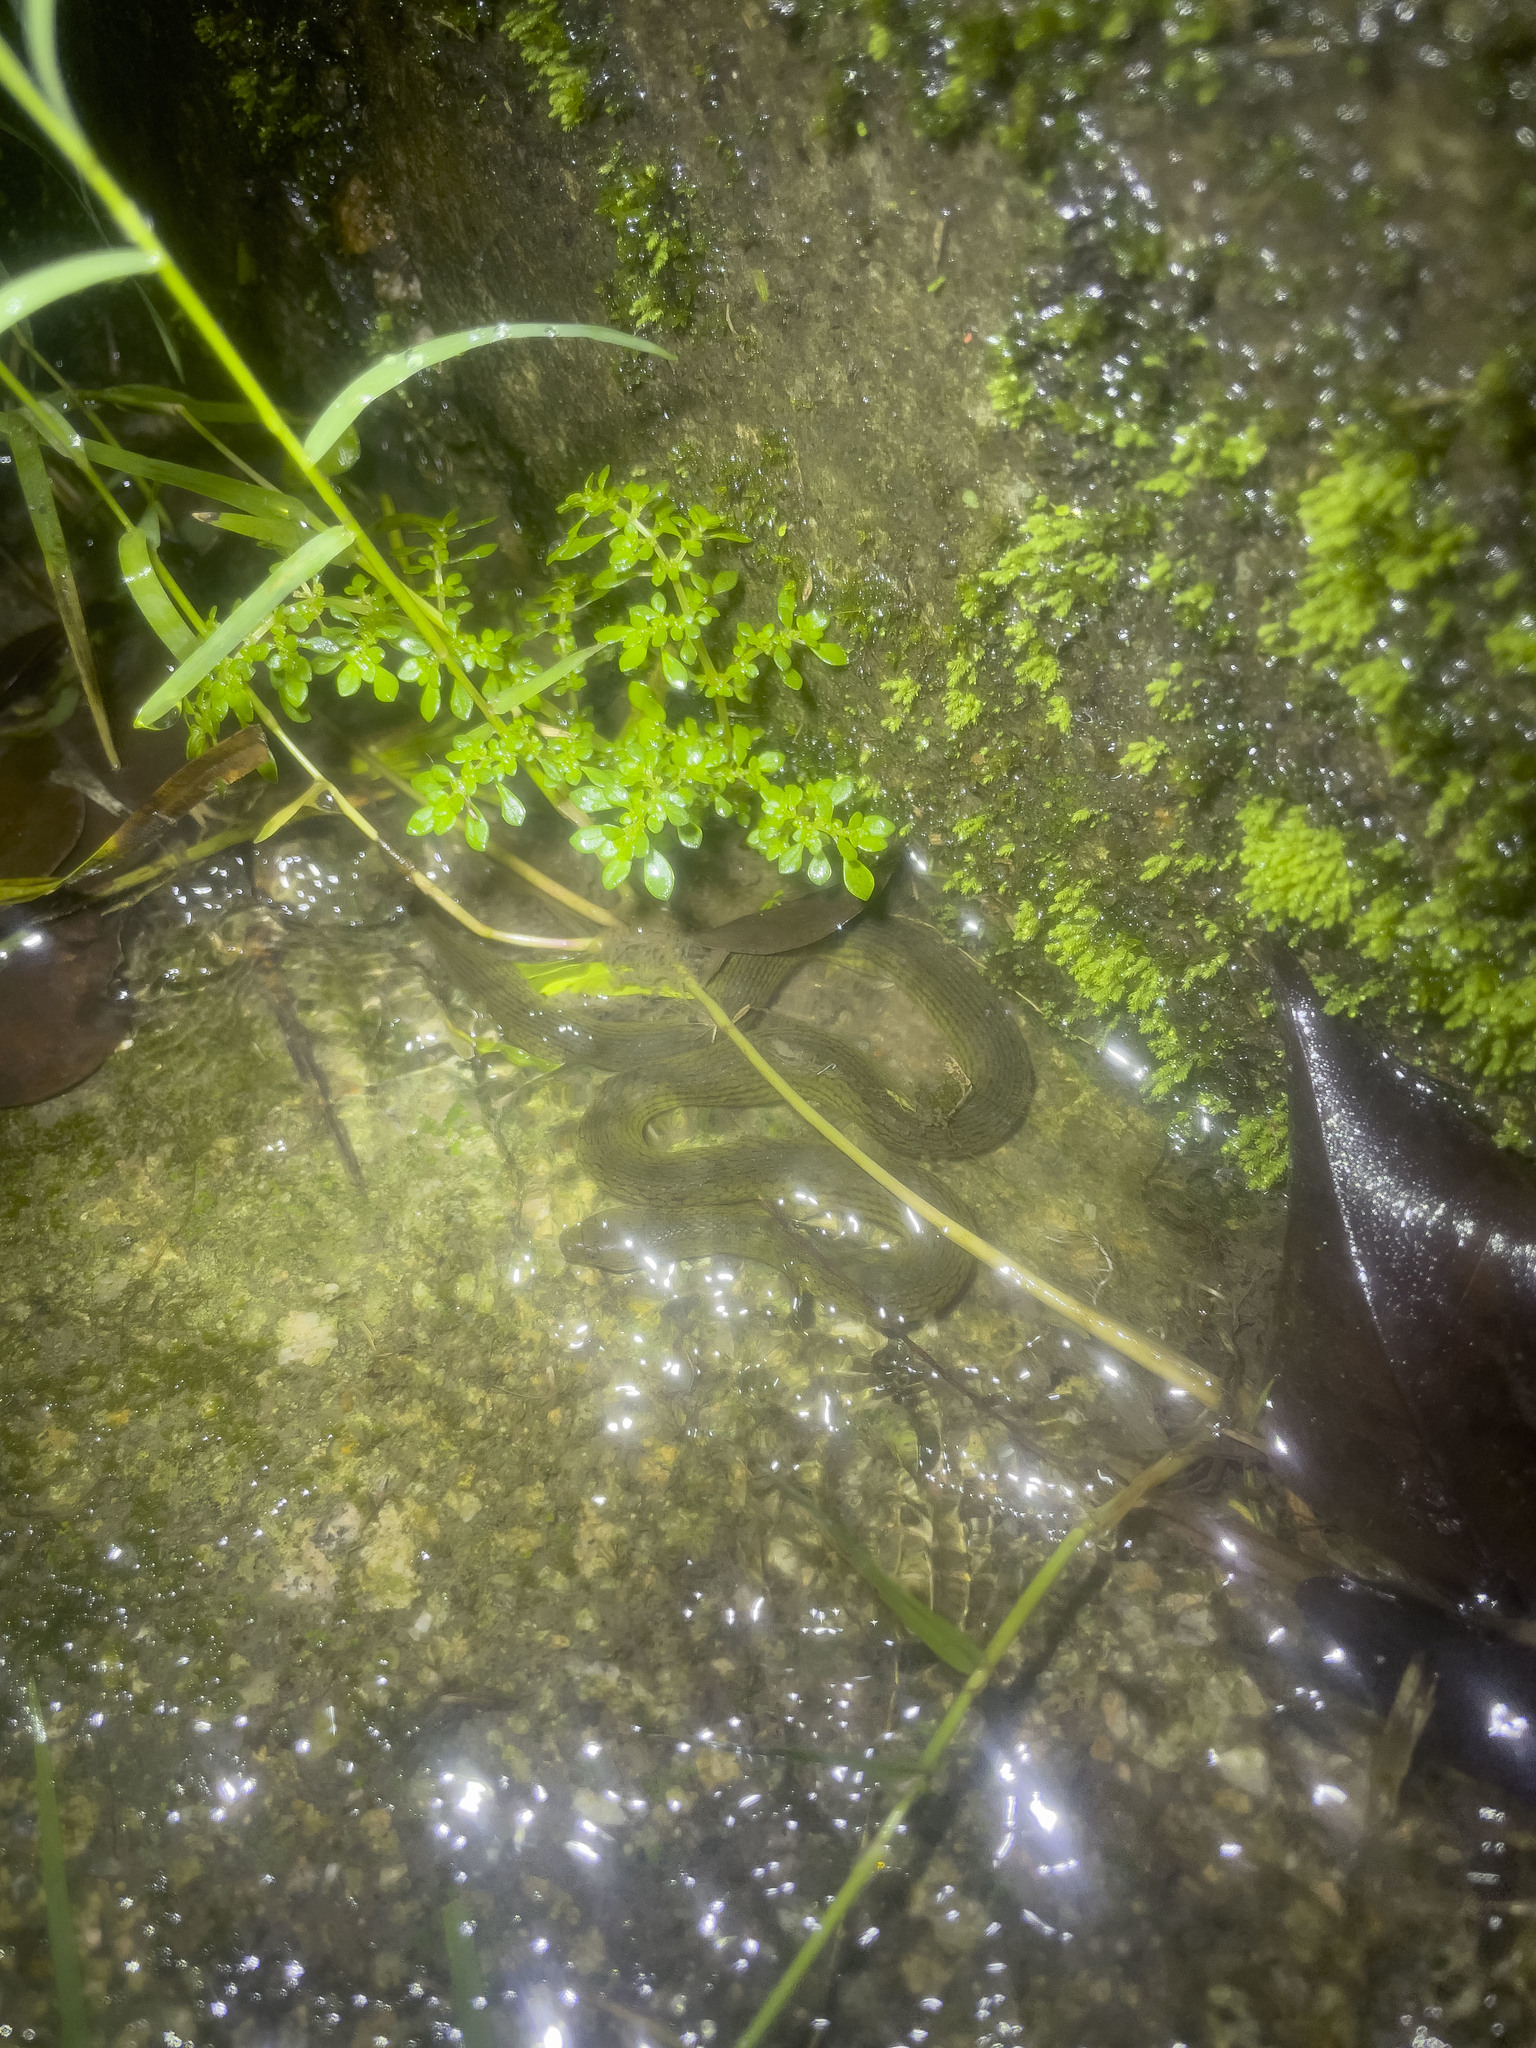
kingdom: Animalia
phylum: Chordata
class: Squamata
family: Colubridae
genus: Opisthotropis
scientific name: Opisthotropis andersonii
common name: Anderson's mountain keelback
